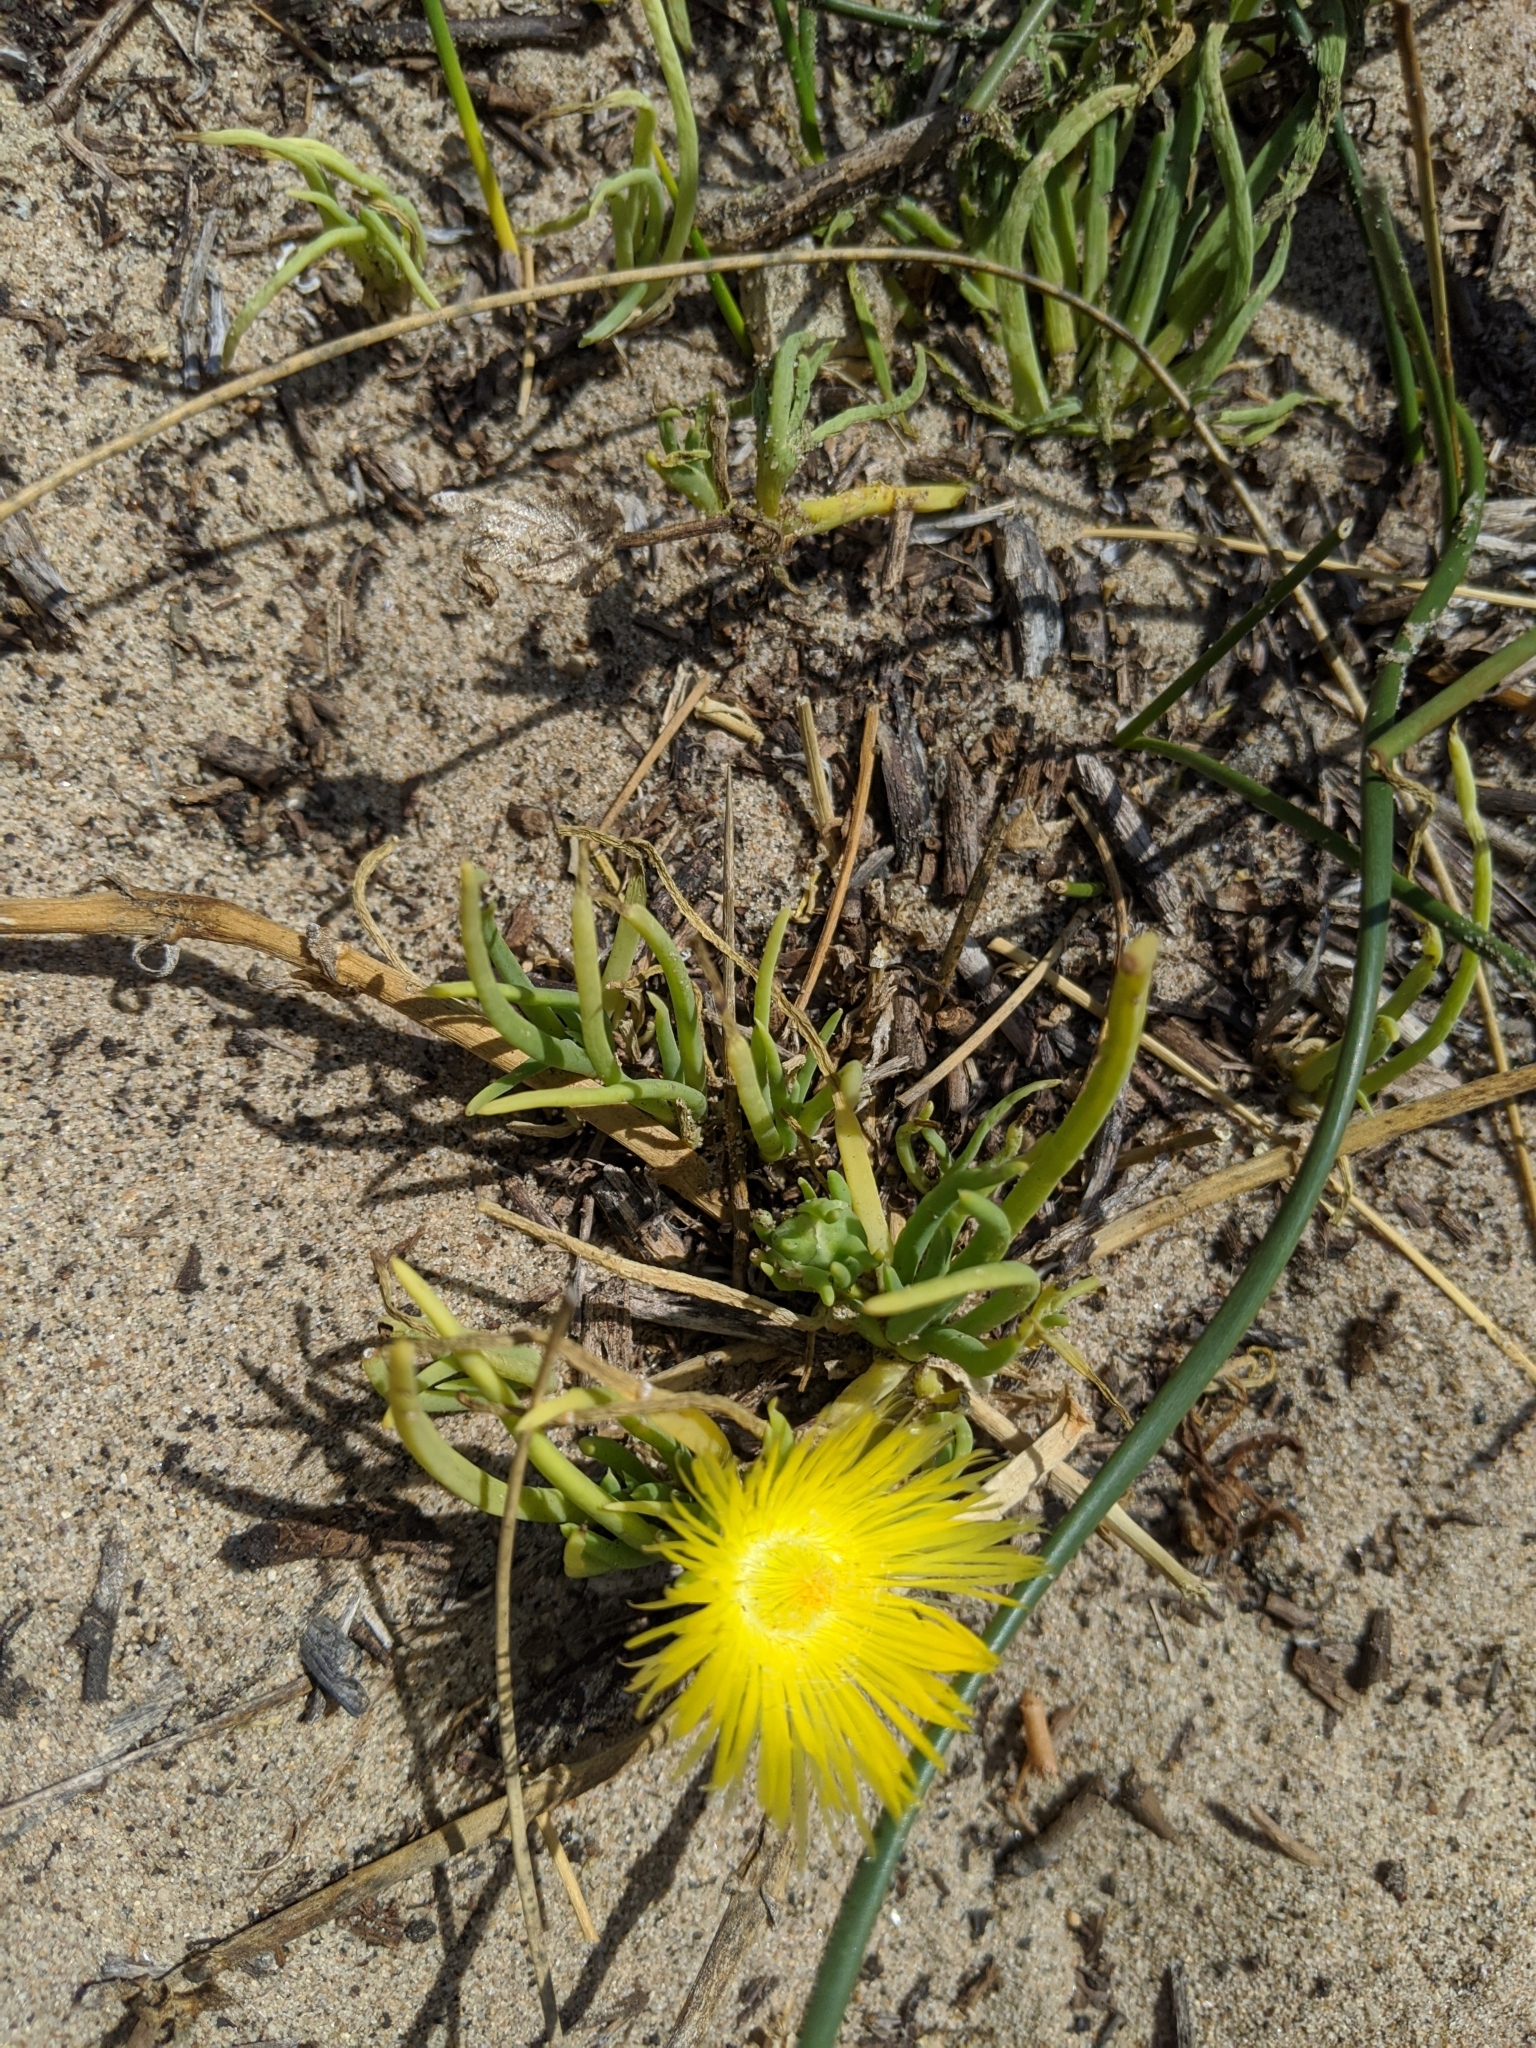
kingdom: Plantae
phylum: Tracheophyta
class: Magnoliopsida
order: Caryophyllales
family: Aizoaceae
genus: Conicosia
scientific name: Conicosia pugioniformis
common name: Narrow-leaved iceplant
